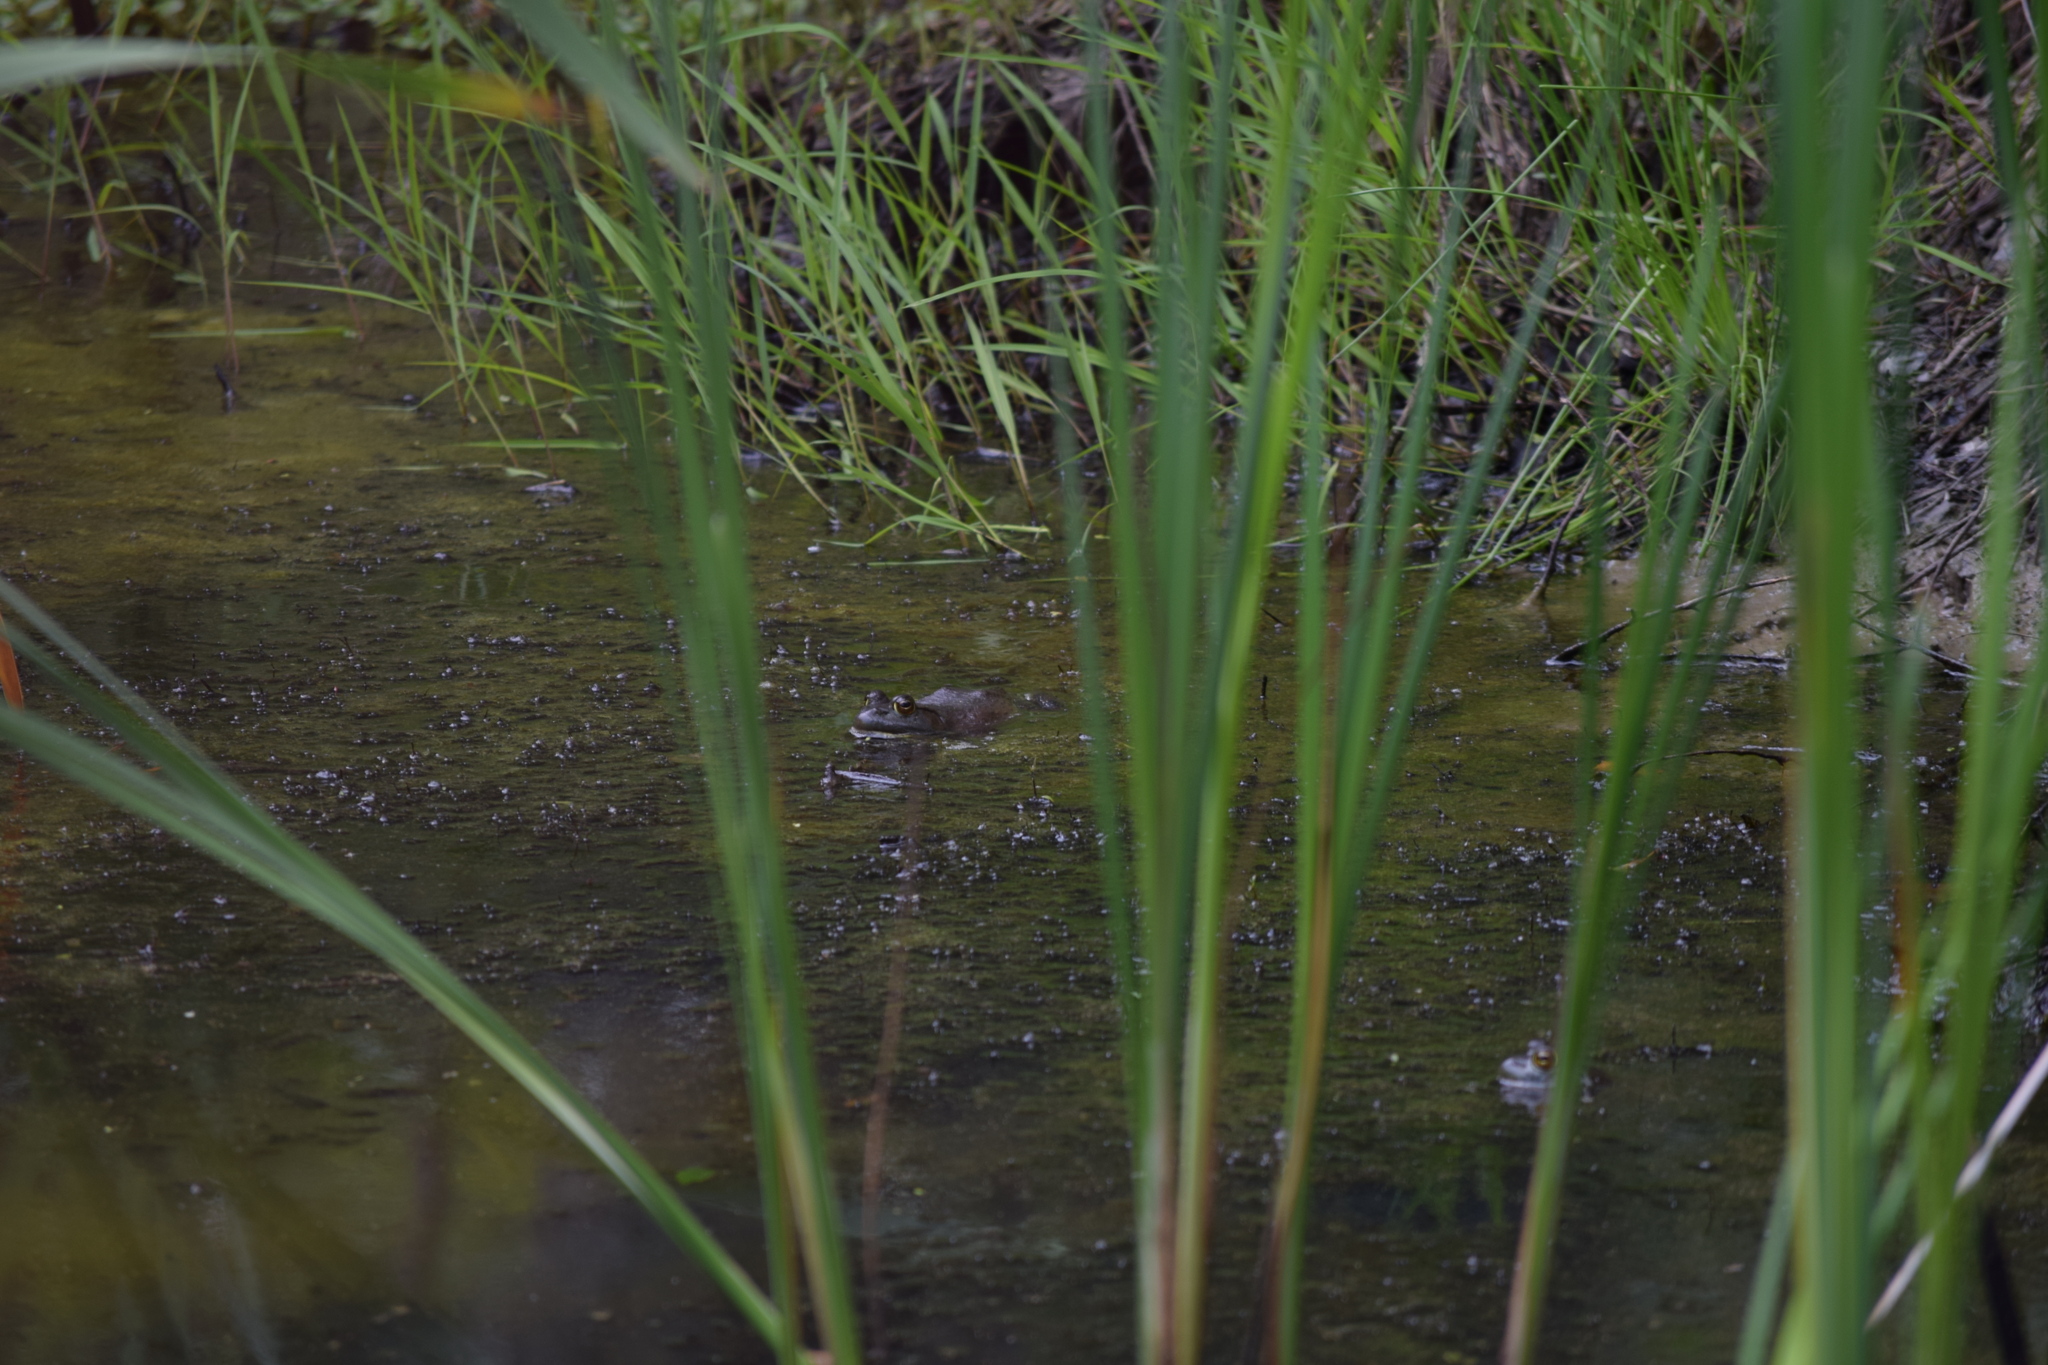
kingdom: Animalia
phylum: Chordata
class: Amphibia
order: Anura
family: Ranidae
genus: Lithobates
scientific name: Lithobates catesbeianus
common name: American bullfrog
